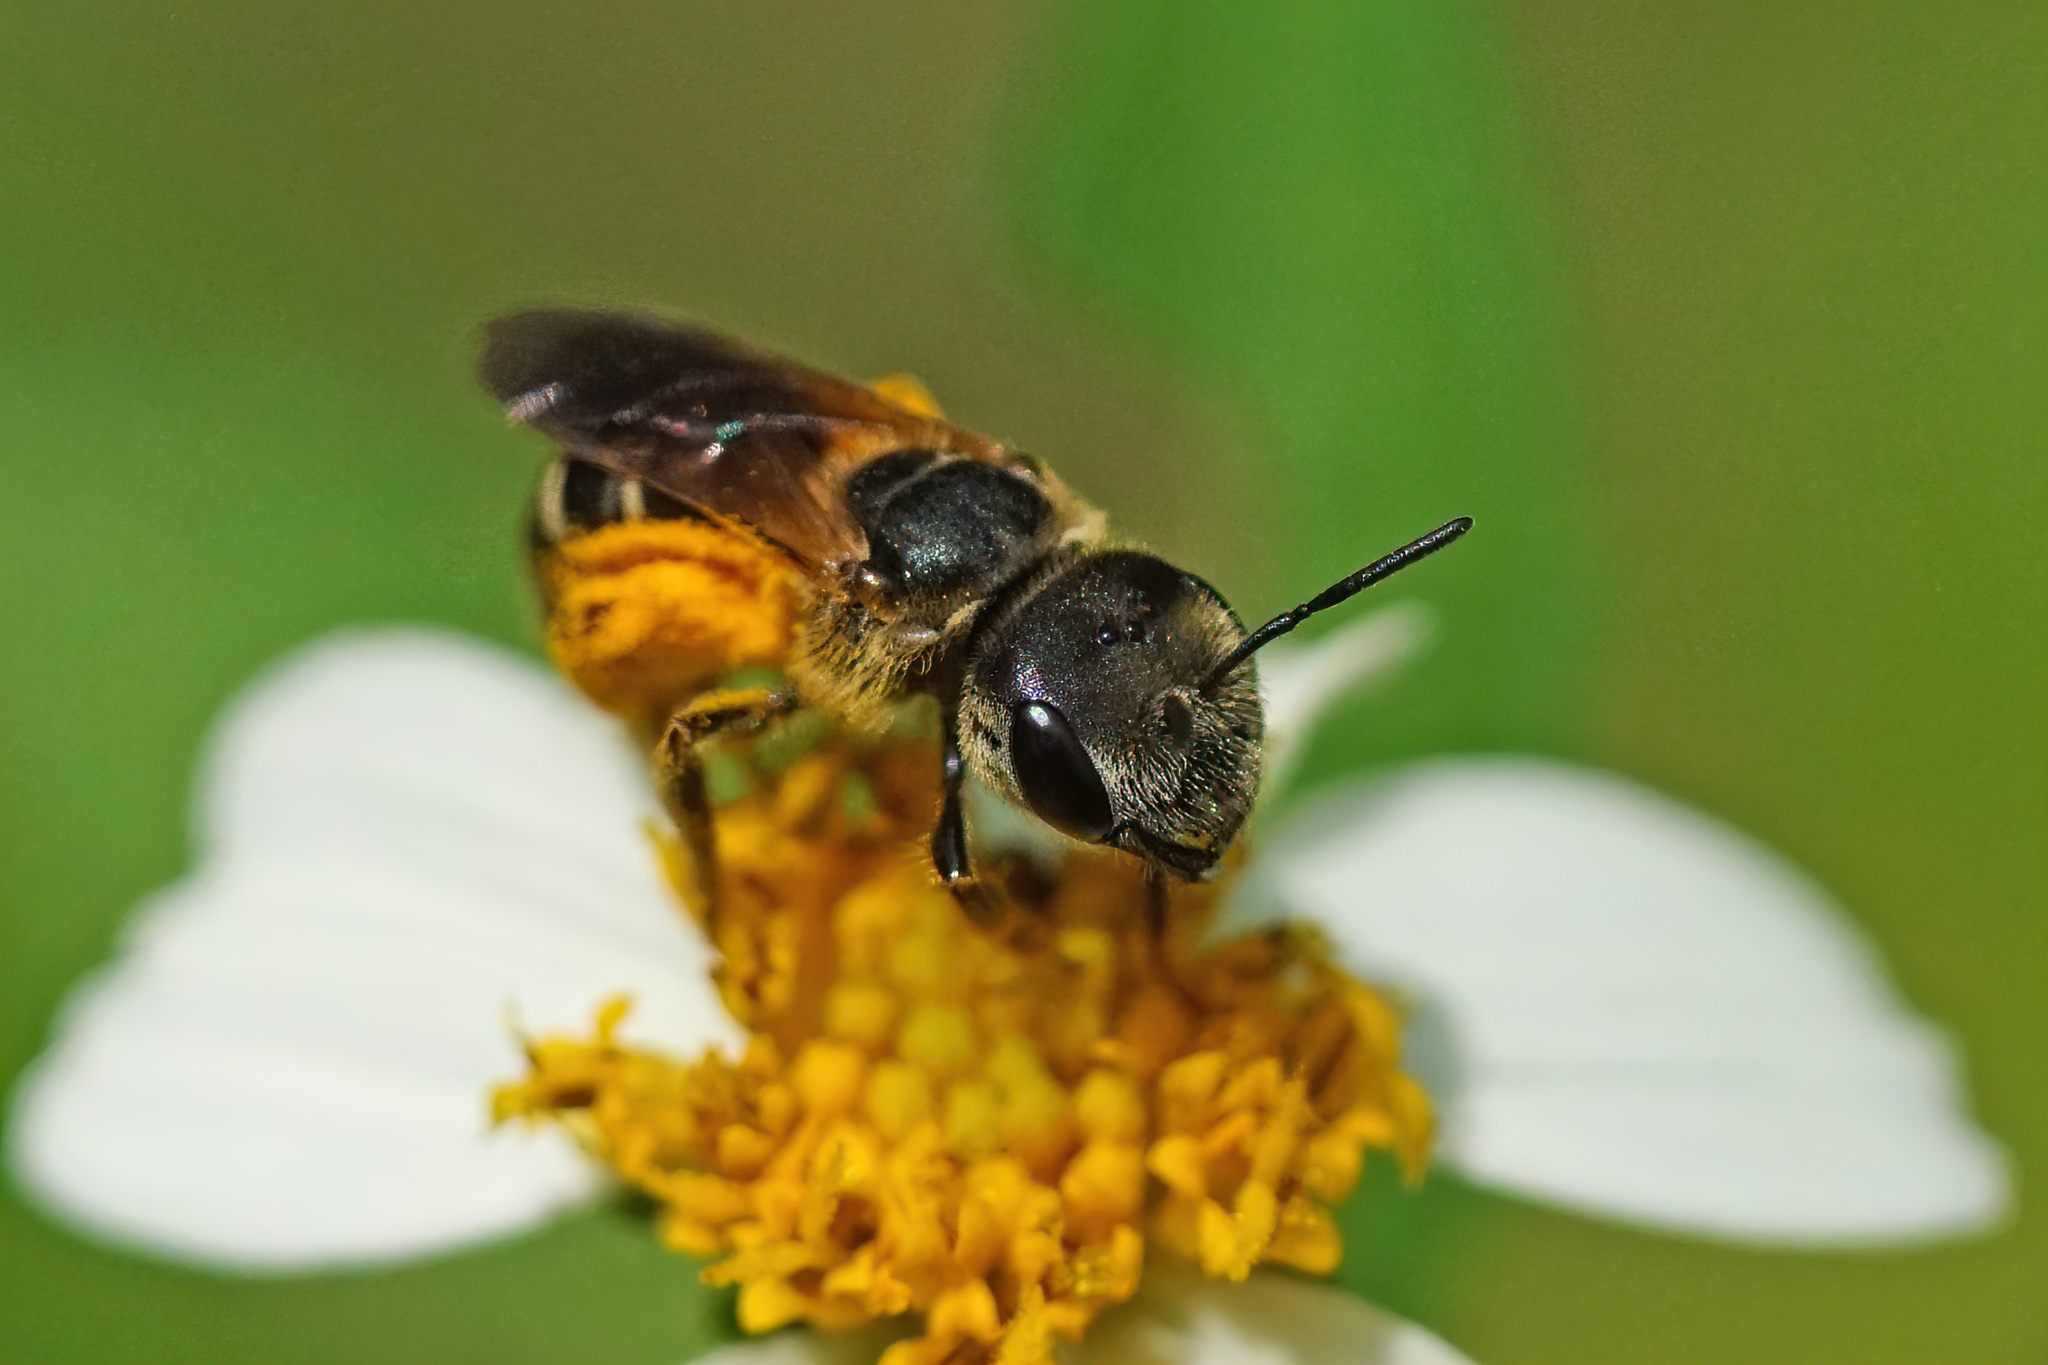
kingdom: Animalia
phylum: Arthropoda
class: Insecta
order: Hymenoptera
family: Halictidae
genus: Halictus
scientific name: Halictus poeyi
